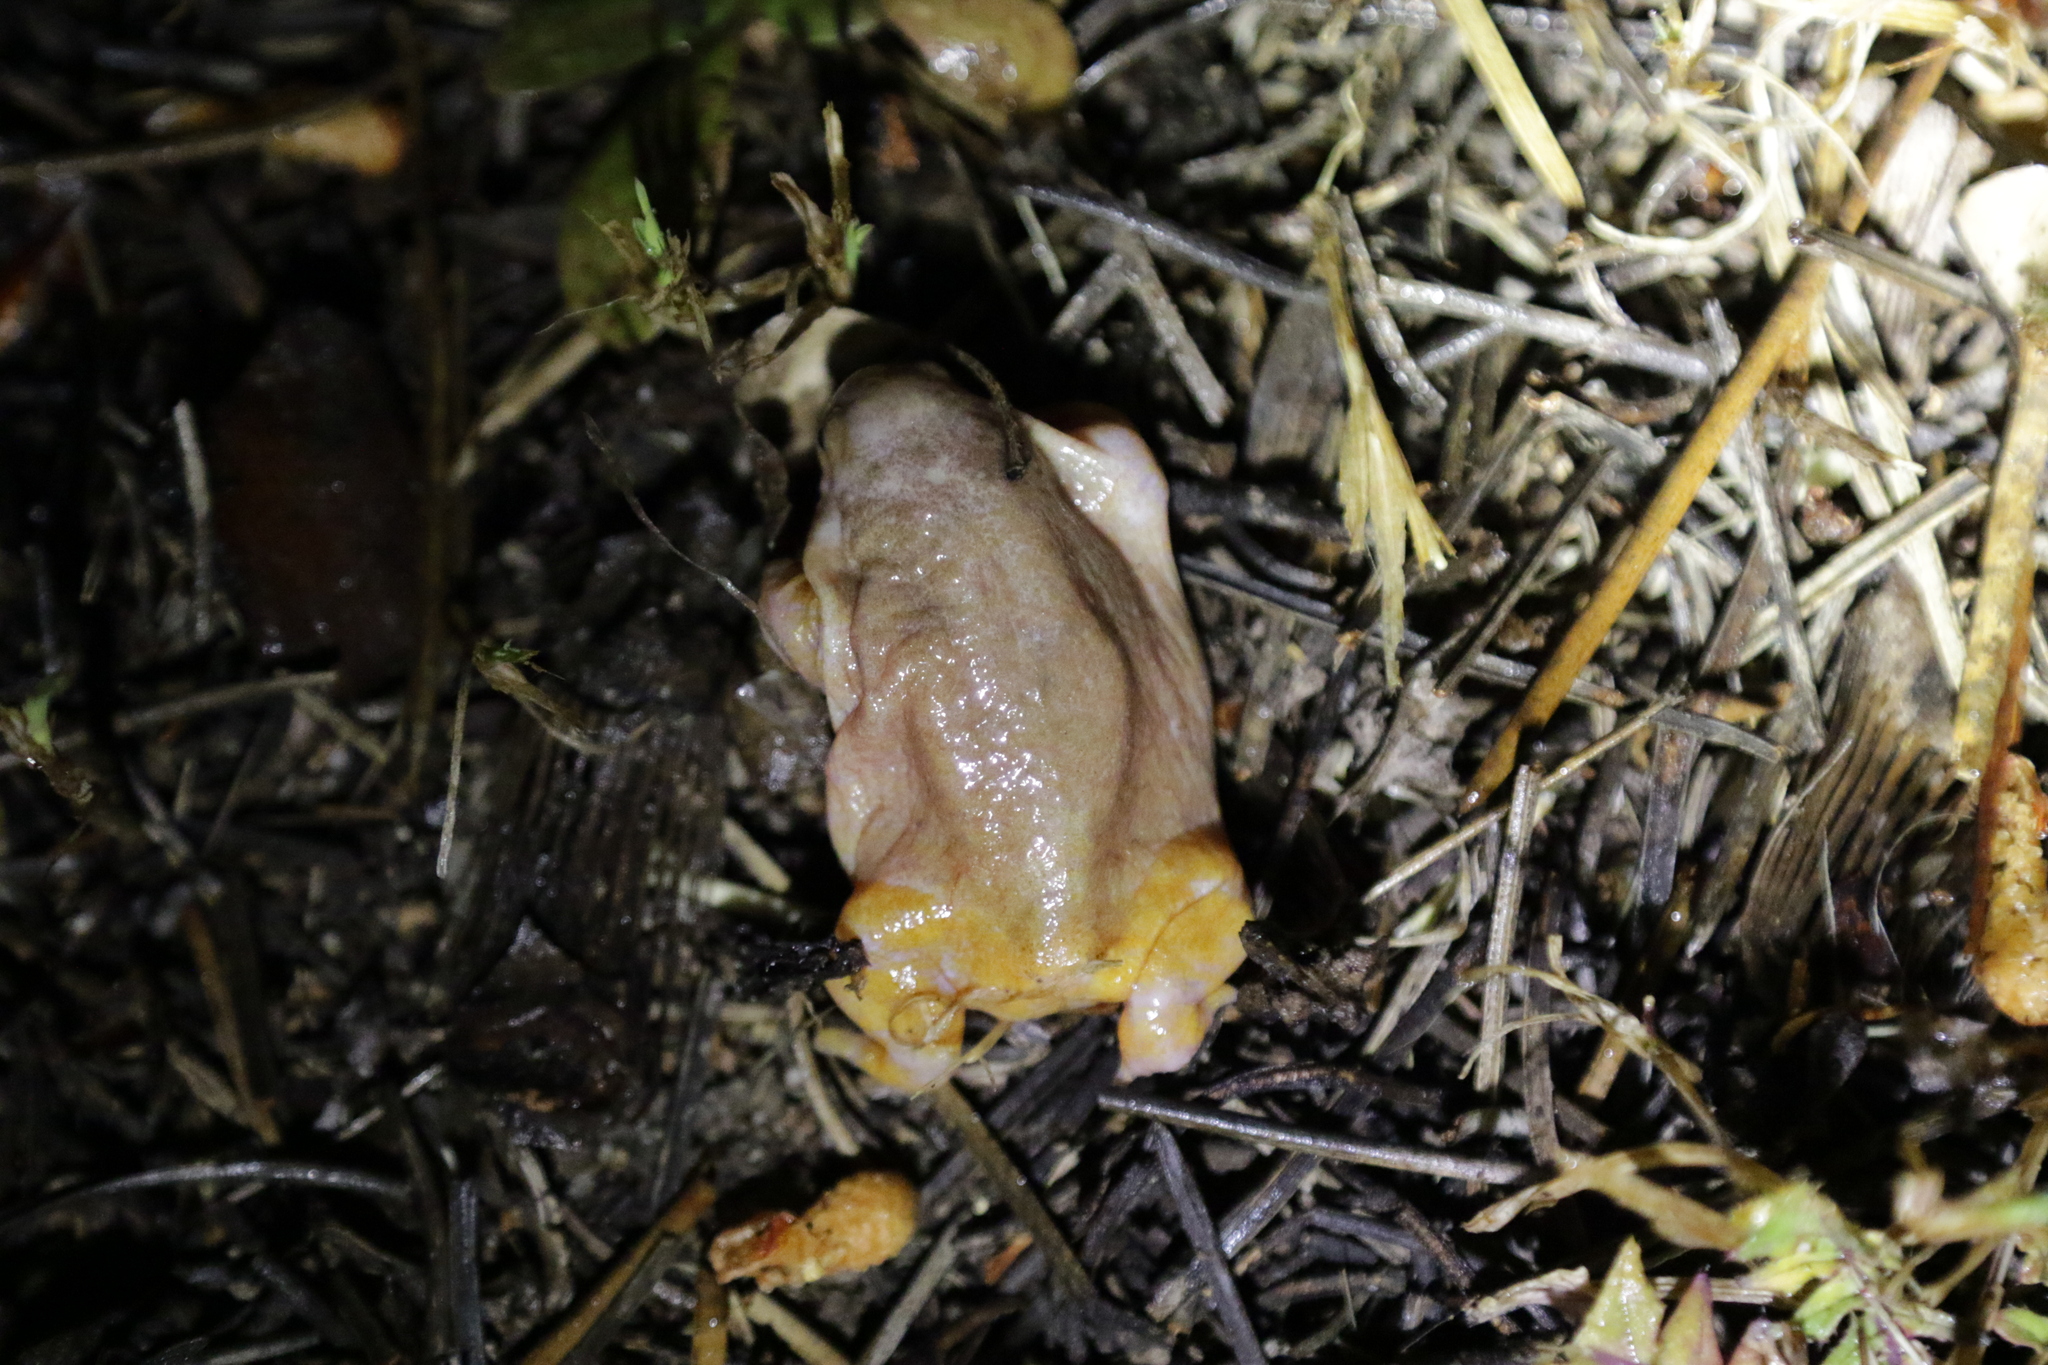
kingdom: Animalia
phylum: Chordata
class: Amphibia
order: Anura
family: Myobatrachidae
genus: Myobatrachus
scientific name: Myobatrachus gouldii
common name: Turtle frog
